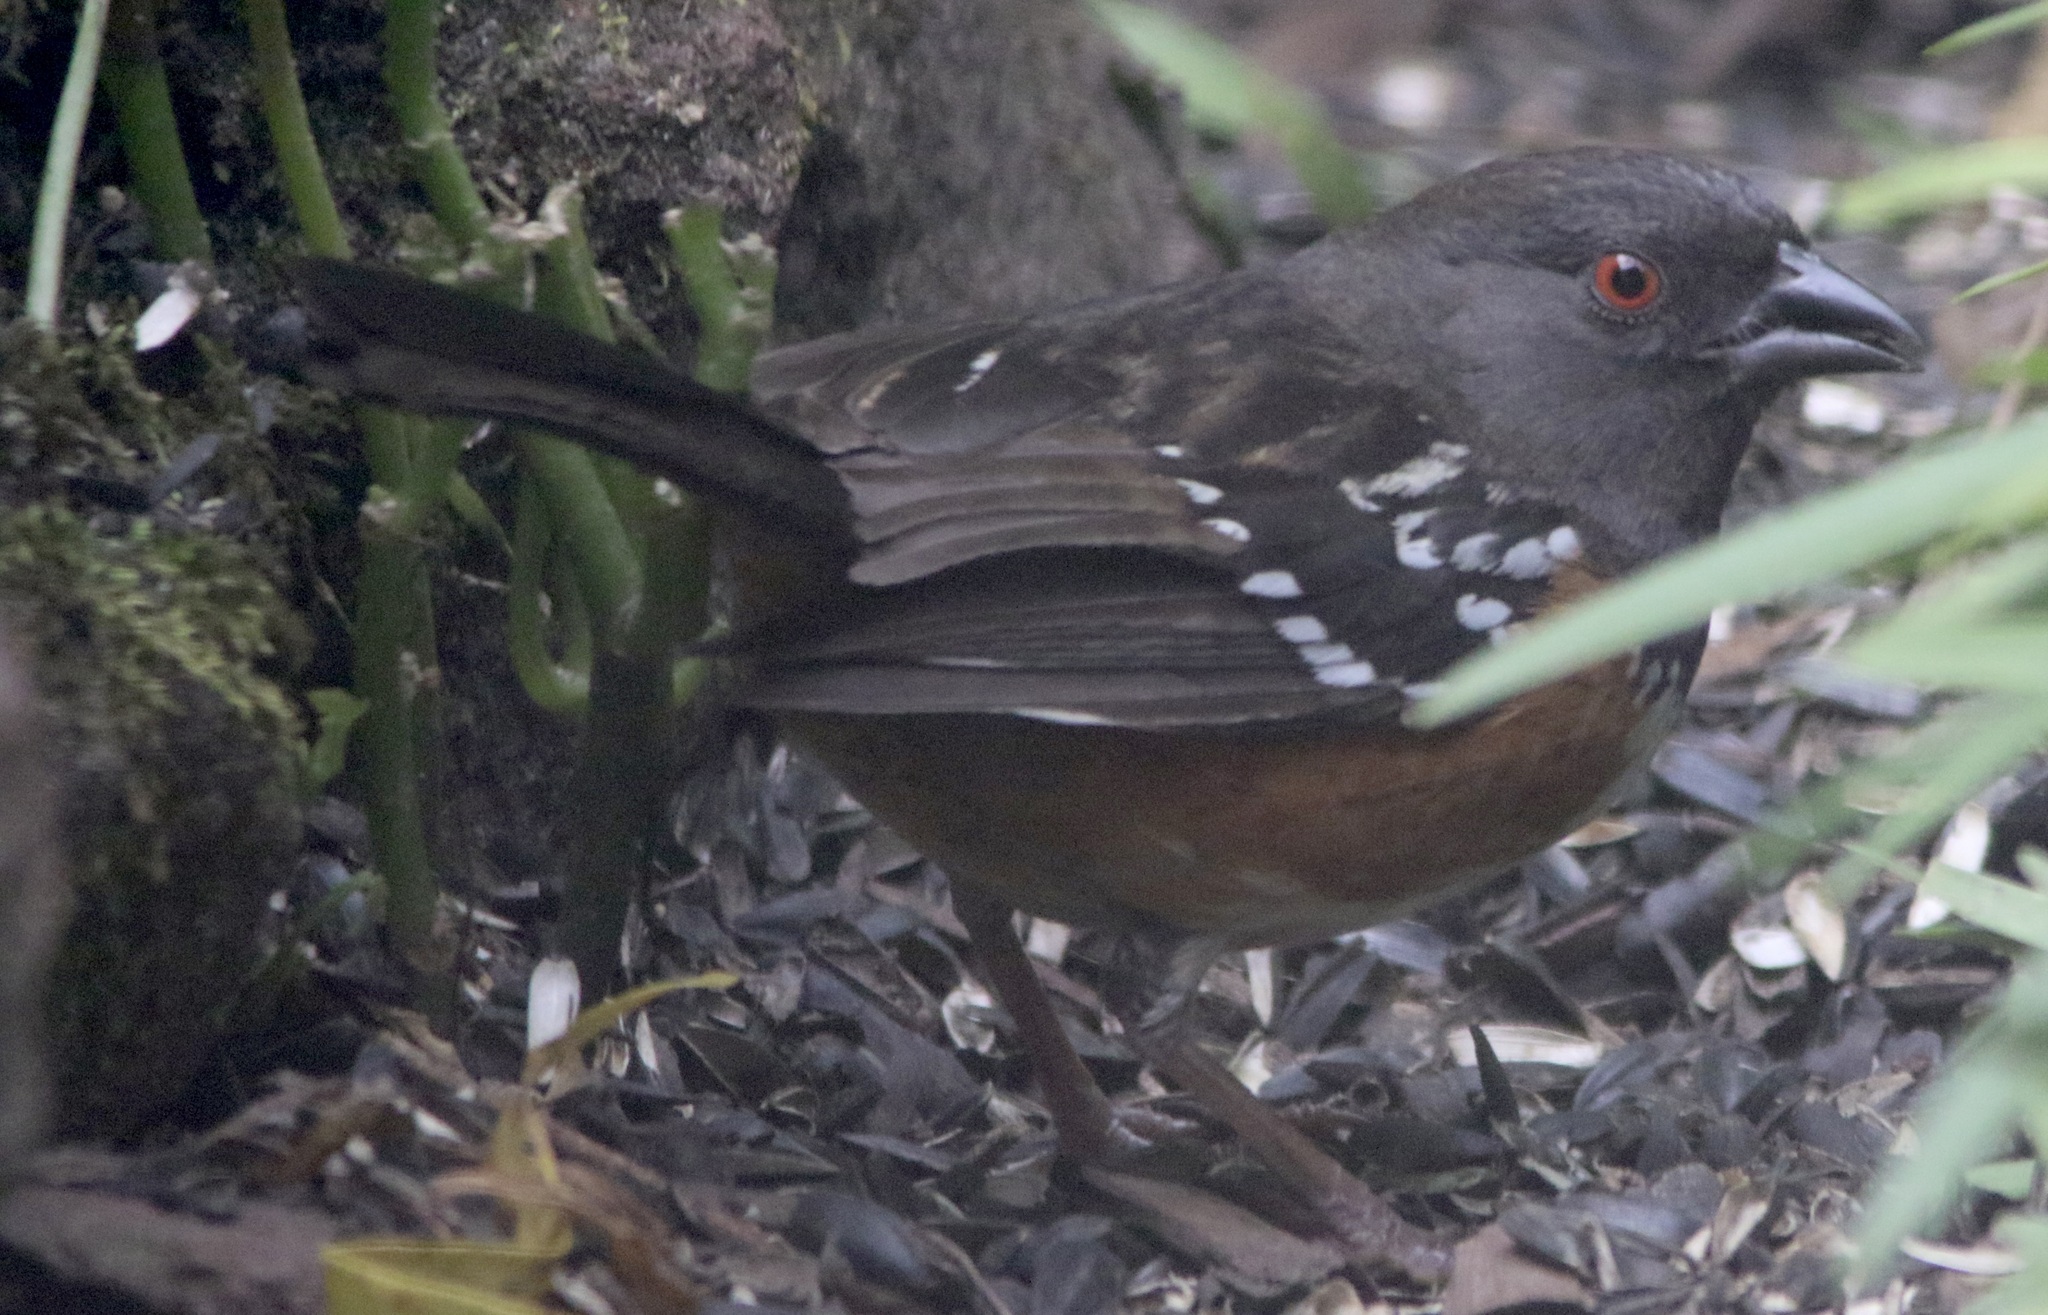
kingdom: Animalia
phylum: Chordata
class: Aves
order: Passeriformes
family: Passerellidae
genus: Pipilo
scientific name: Pipilo maculatus
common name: Spotted towhee
